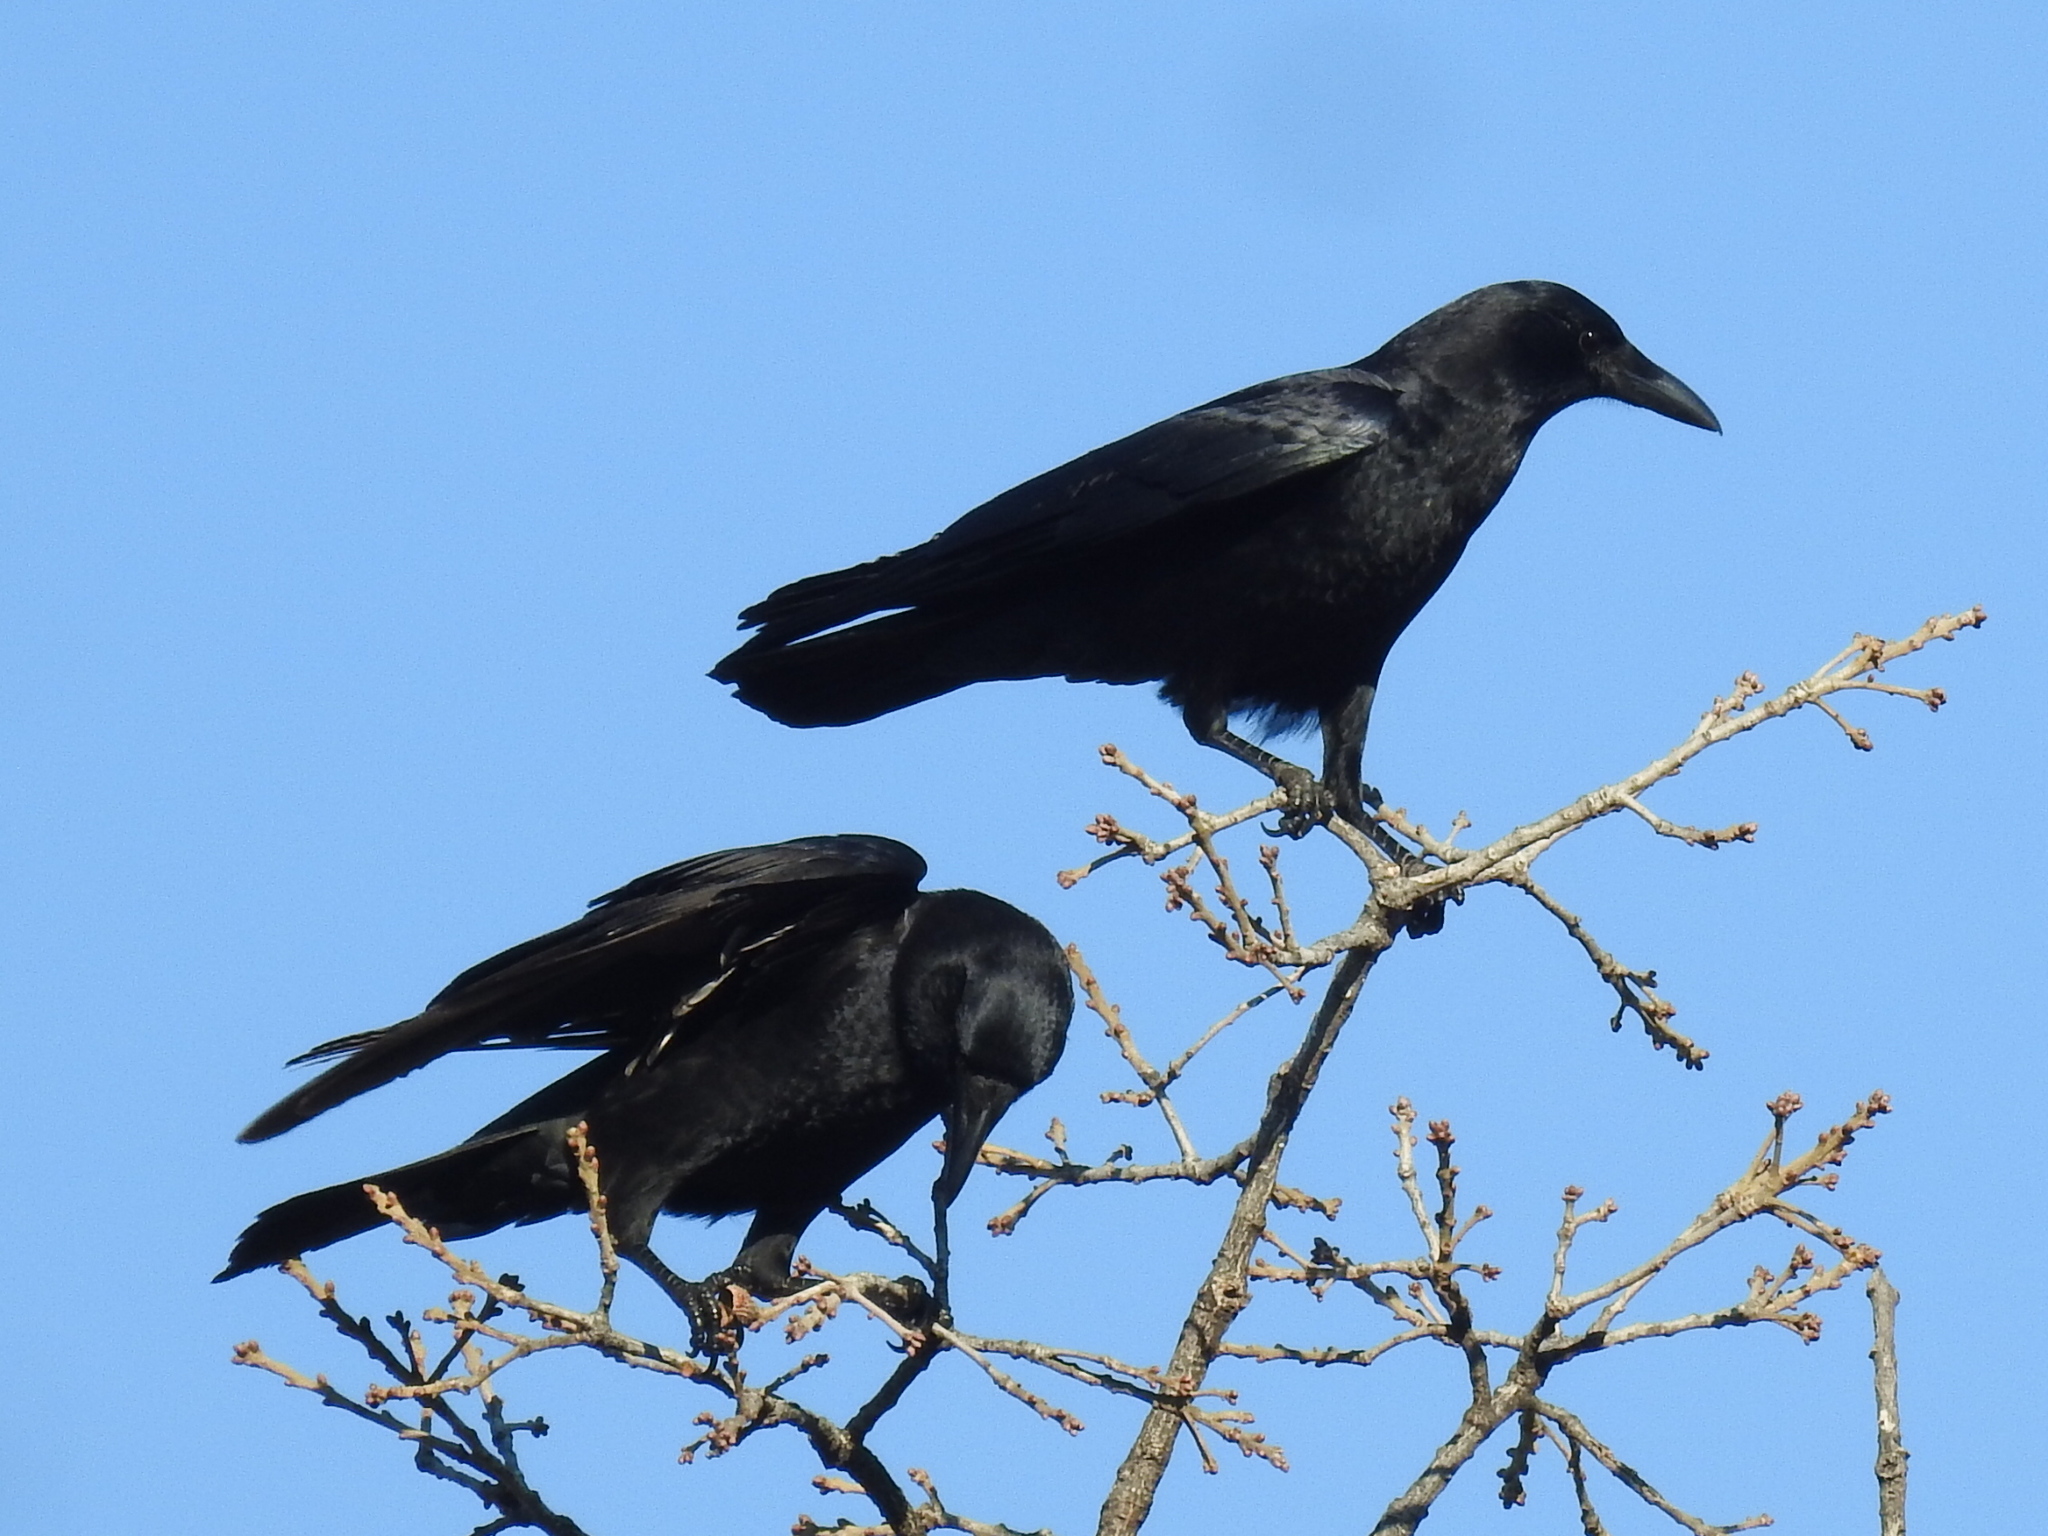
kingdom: Animalia
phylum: Chordata
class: Aves
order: Passeriformes
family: Corvidae
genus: Corvus
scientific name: Corvus brachyrhynchos
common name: American crow
